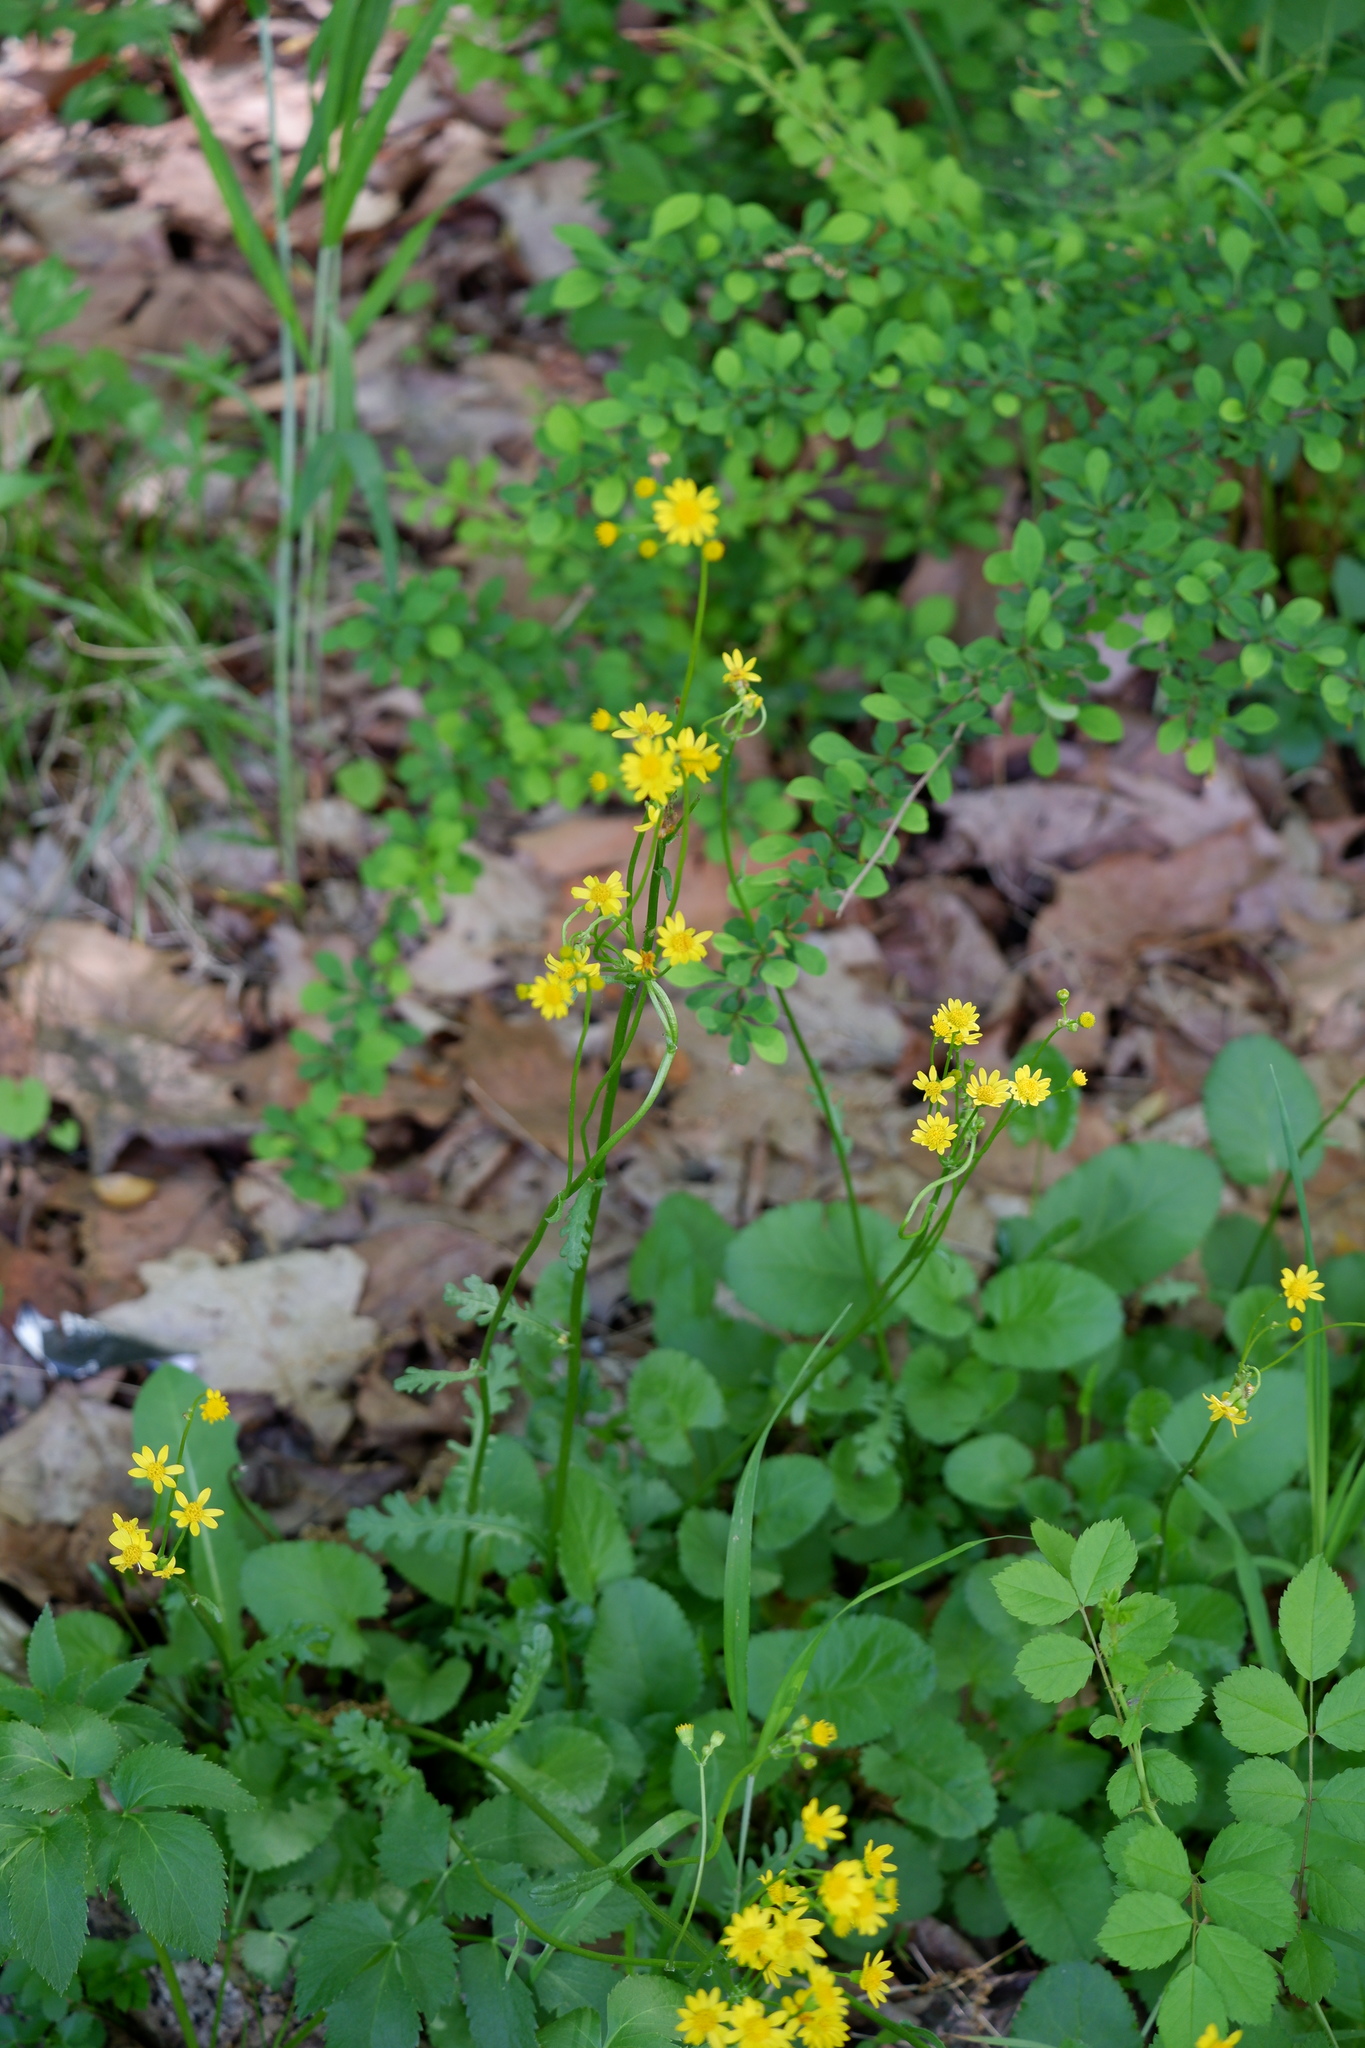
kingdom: Plantae
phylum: Tracheophyta
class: Magnoliopsida
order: Asterales
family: Asteraceae
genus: Packera
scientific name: Packera aurea
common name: Golden groundsel
